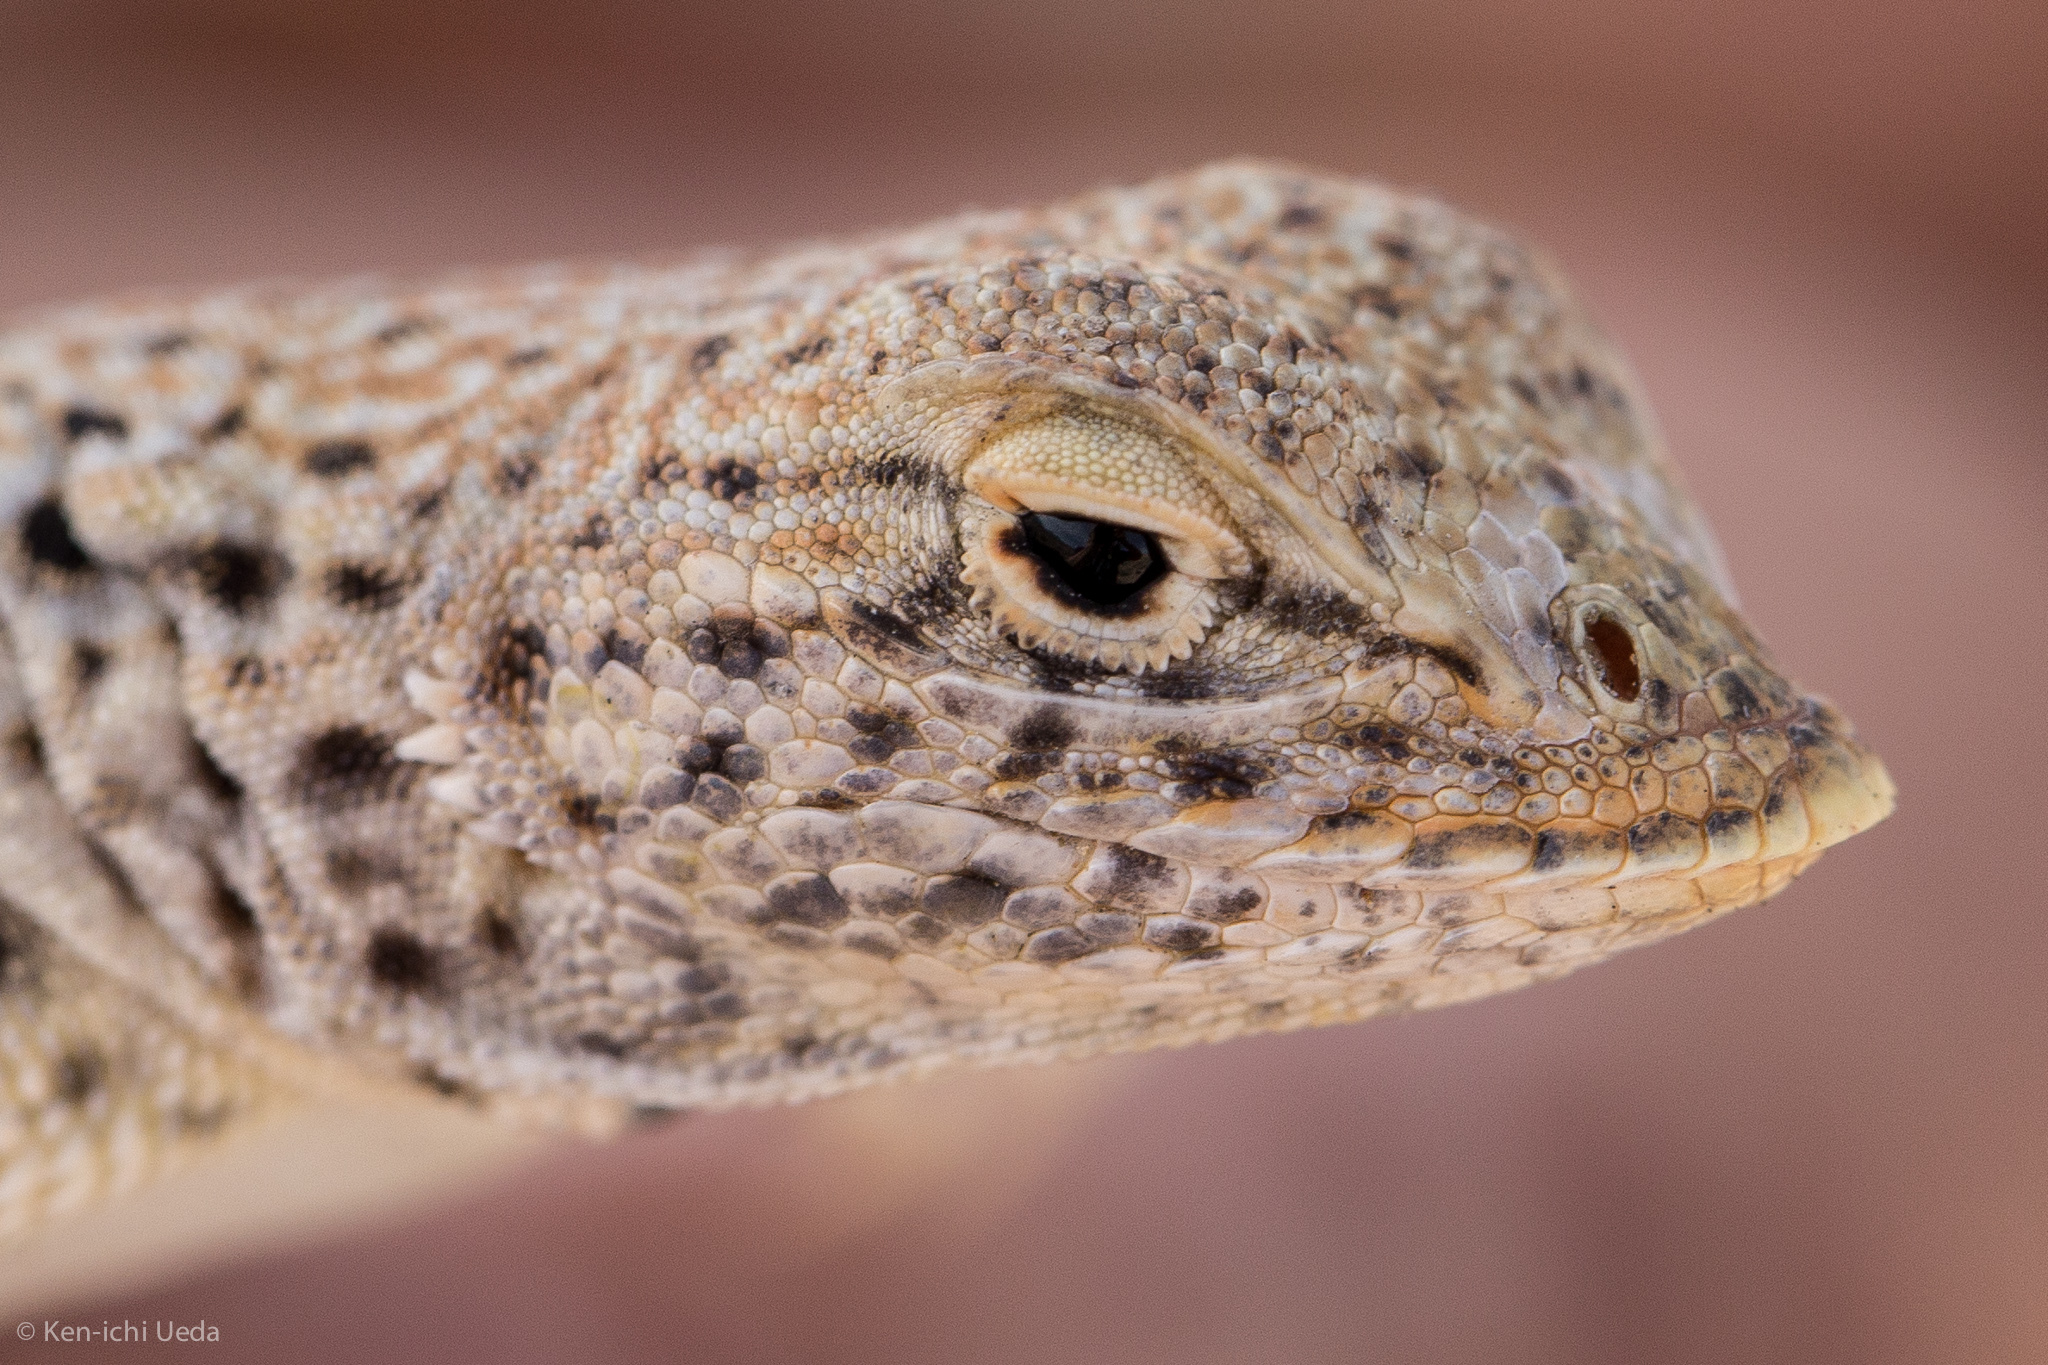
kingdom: Animalia
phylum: Chordata
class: Squamata
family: Phrynosomatidae
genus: Uma
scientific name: Uma scoparia
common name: Mojave fringe-toed lizard
